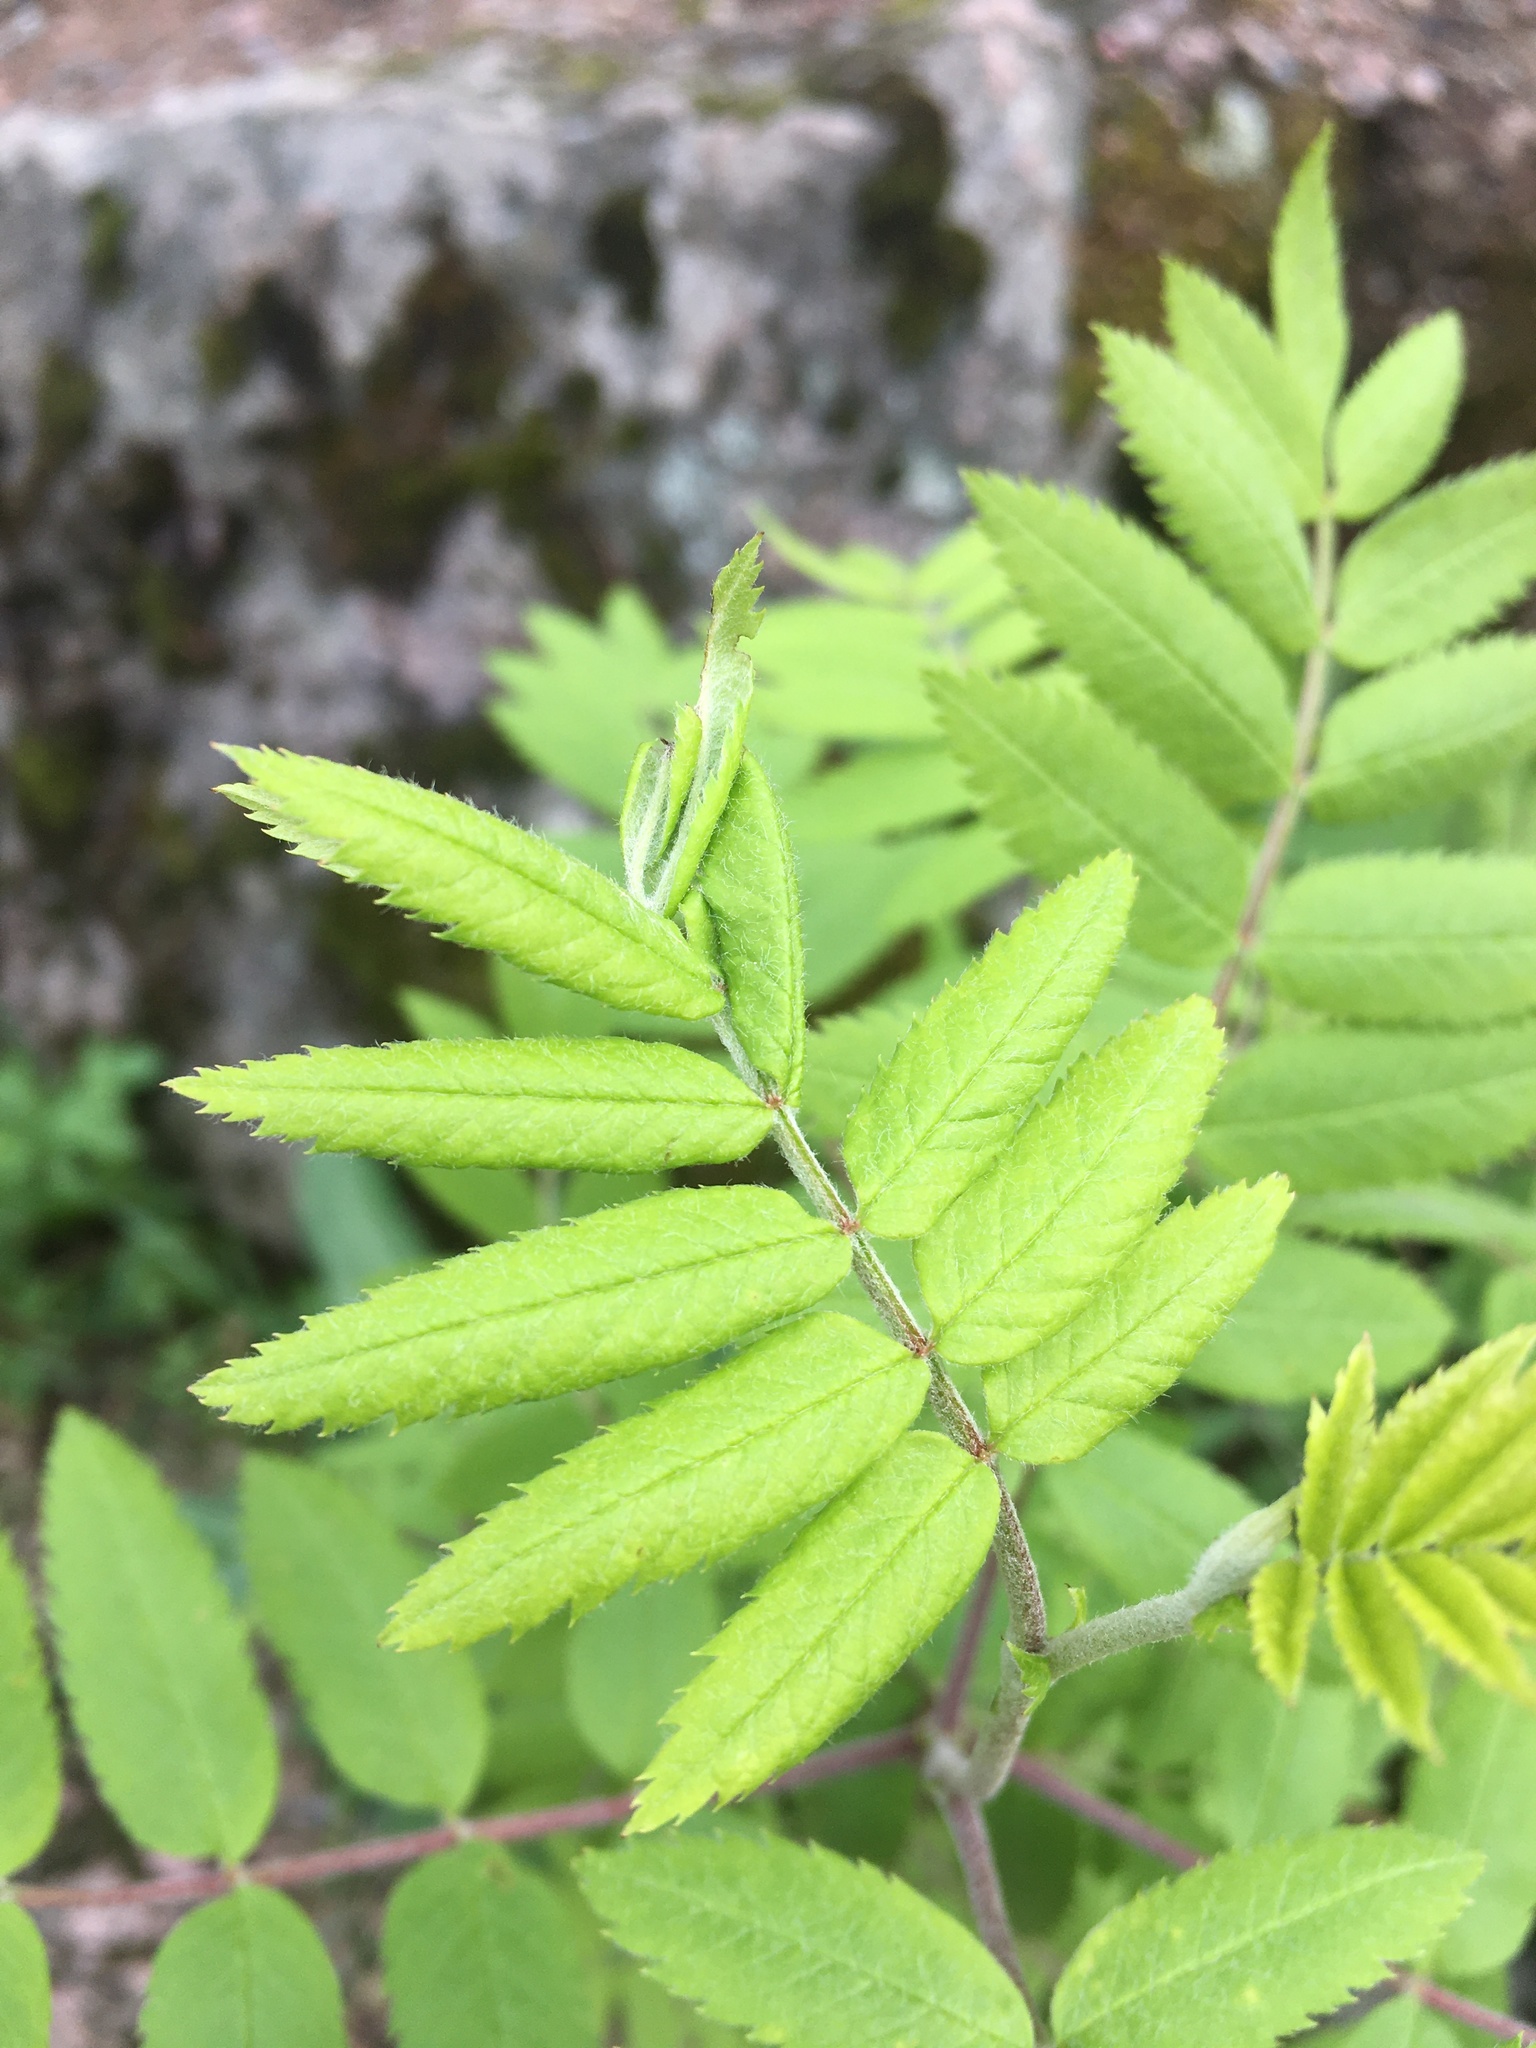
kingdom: Plantae
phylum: Tracheophyta
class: Magnoliopsida
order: Rosales
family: Rosaceae
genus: Sorbus
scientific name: Sorbus aucuparia
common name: Rowan
